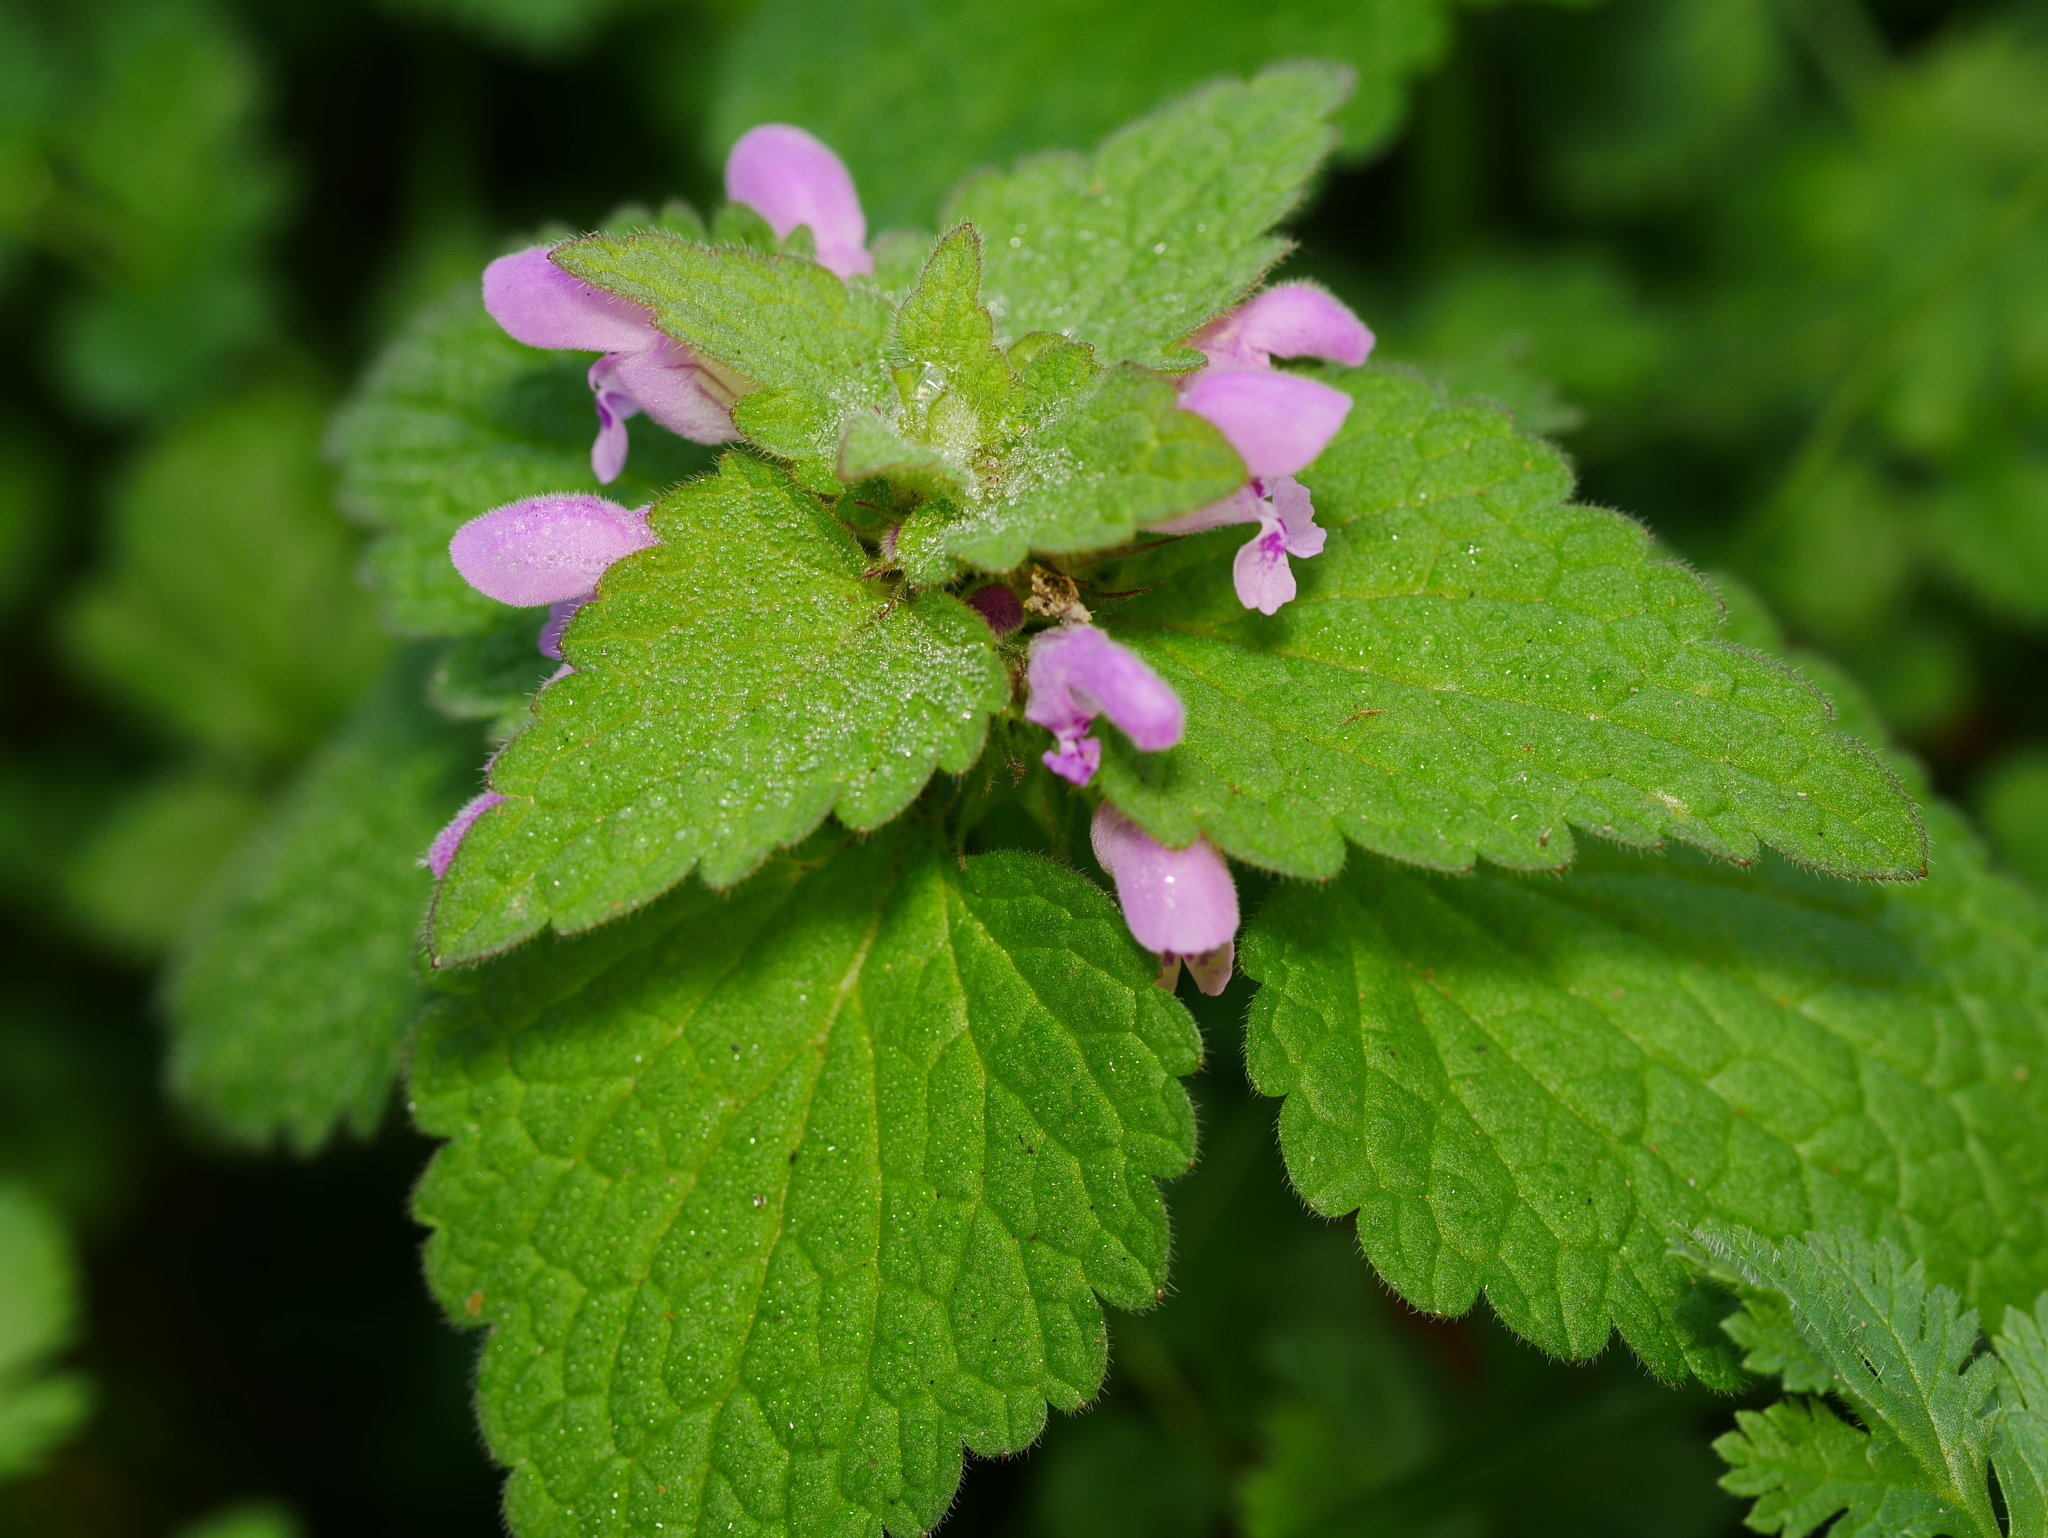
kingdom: Plantae
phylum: Tracheophyta
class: Magnoliopsida
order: Lamiales
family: Lamiaceae
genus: Lamium
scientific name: Lamium purpureum
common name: Red dead-nettle
